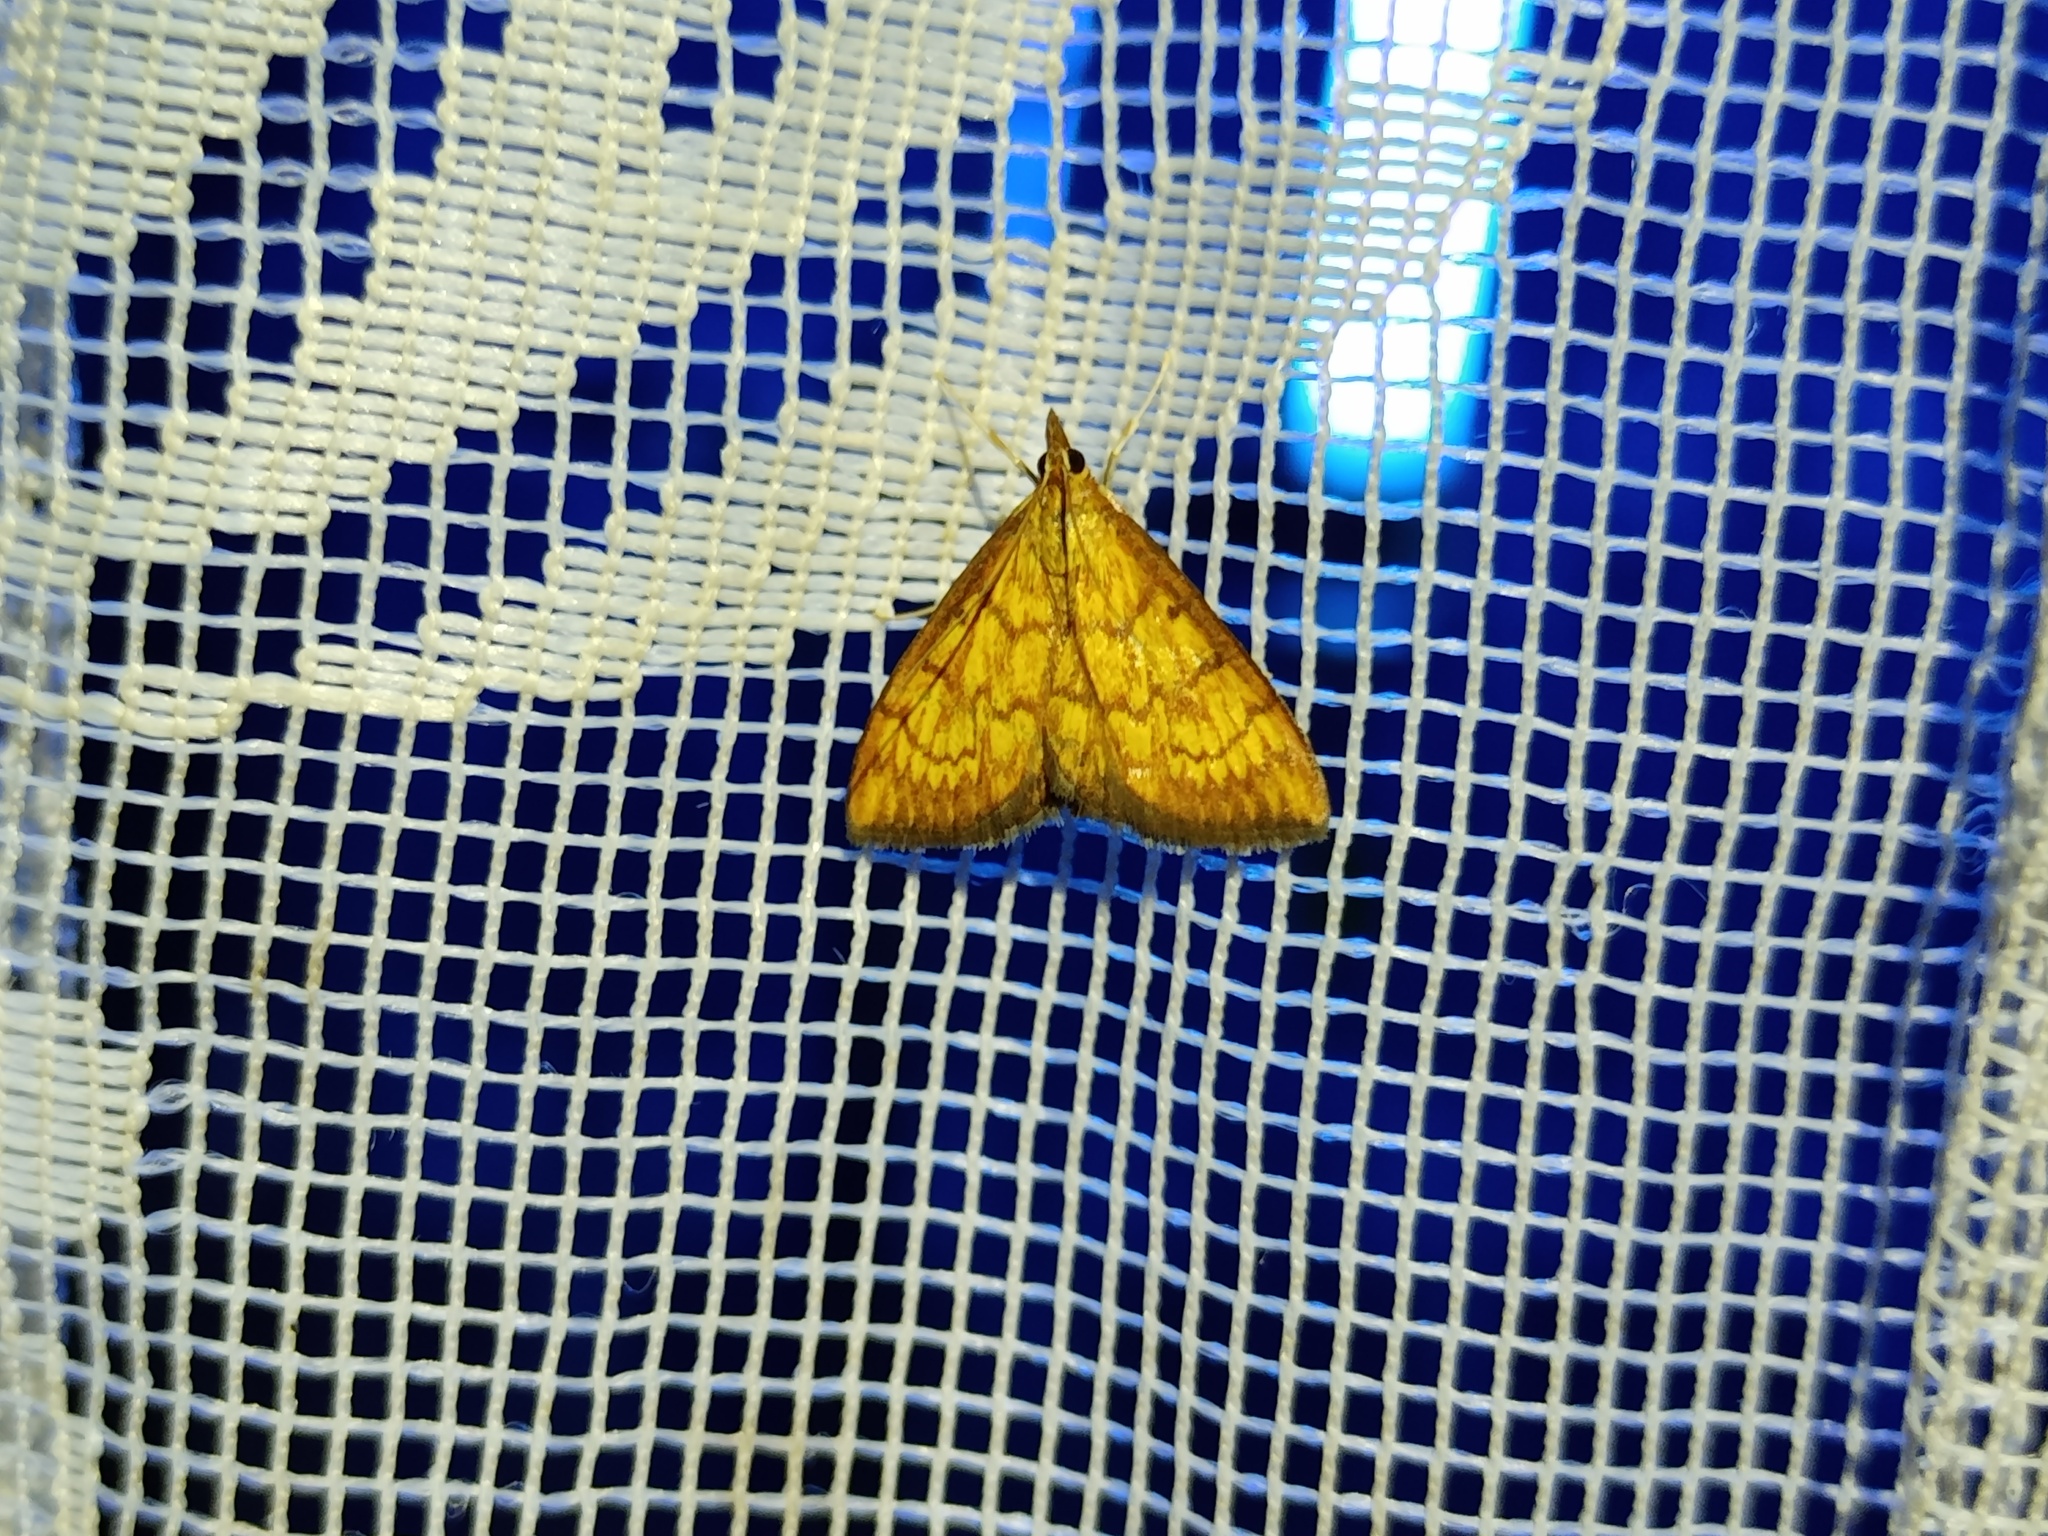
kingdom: Animalia
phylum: Arthropoda
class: Insecta
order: Lepidoptera
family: Crambidae
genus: Ecpyrrhorrhoe
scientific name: Ecpyrrhorrhoe rubiginalis
